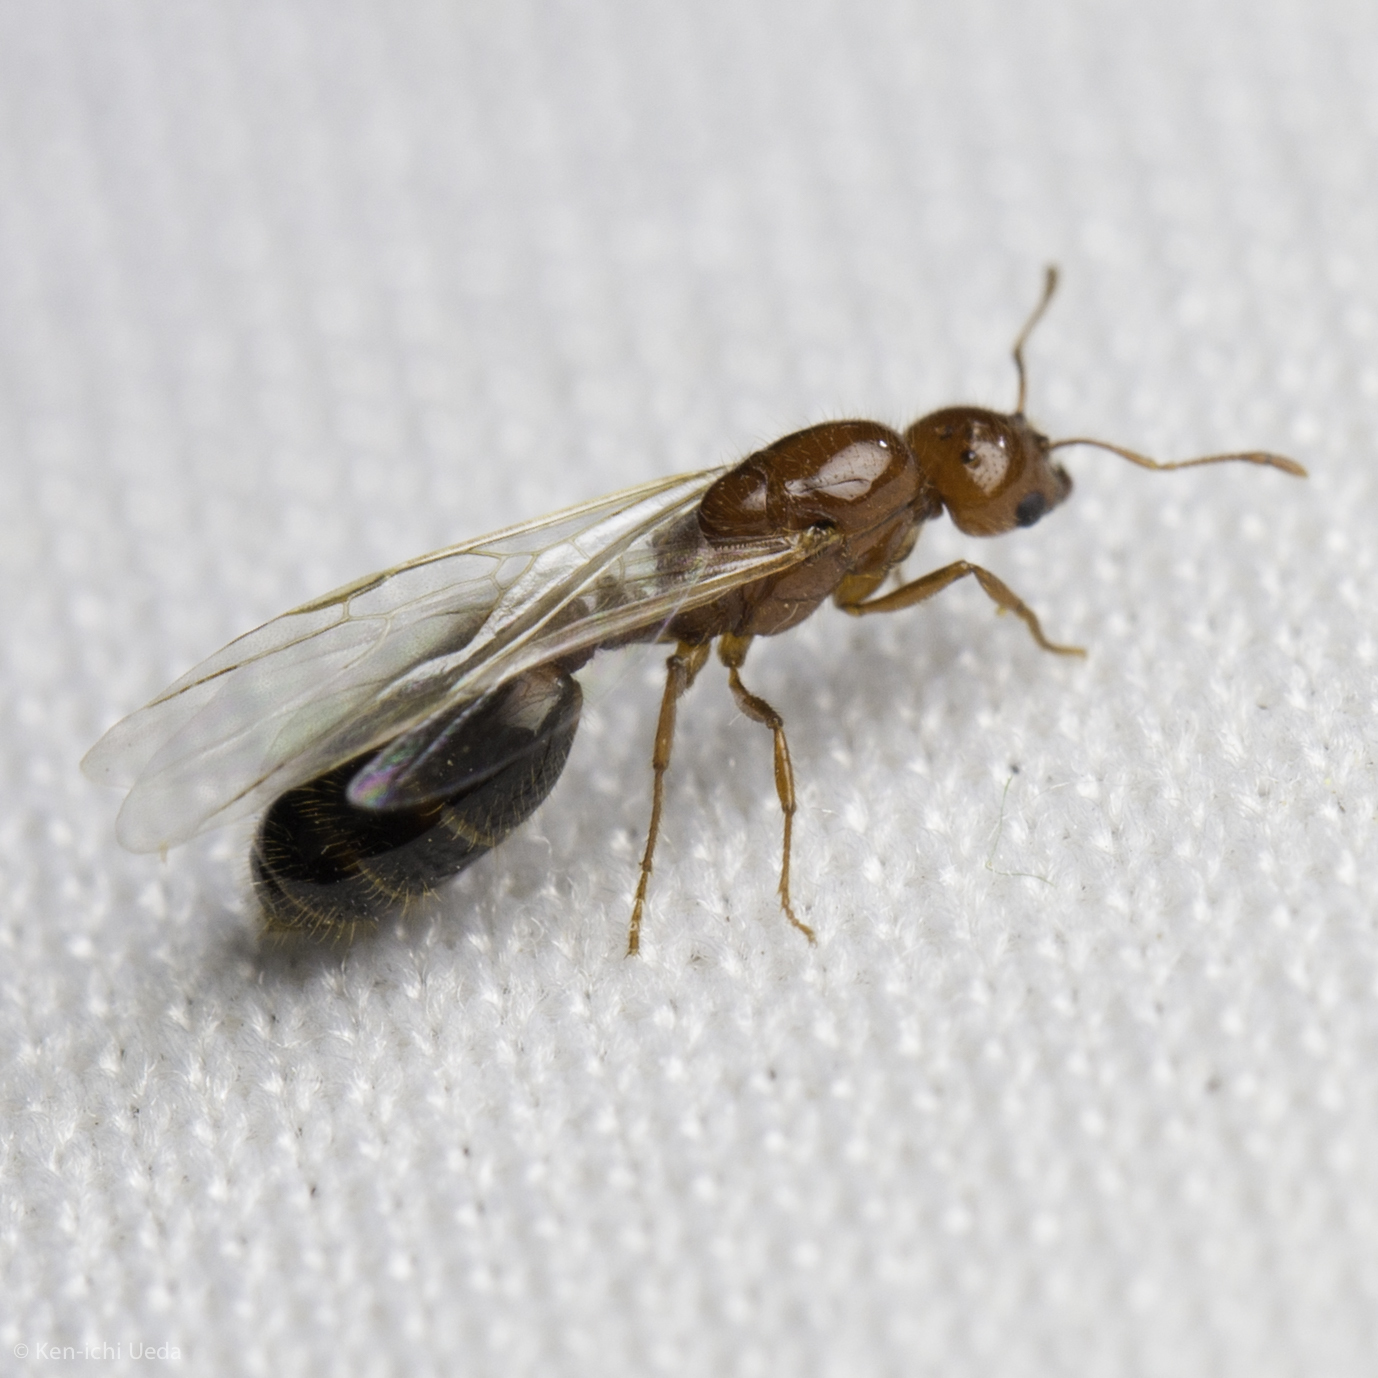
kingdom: Animalia
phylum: Arthropoda
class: Insecta
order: Hymenoptera
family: Formicidae
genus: Solenopsis
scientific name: Solenopsis xyloni
